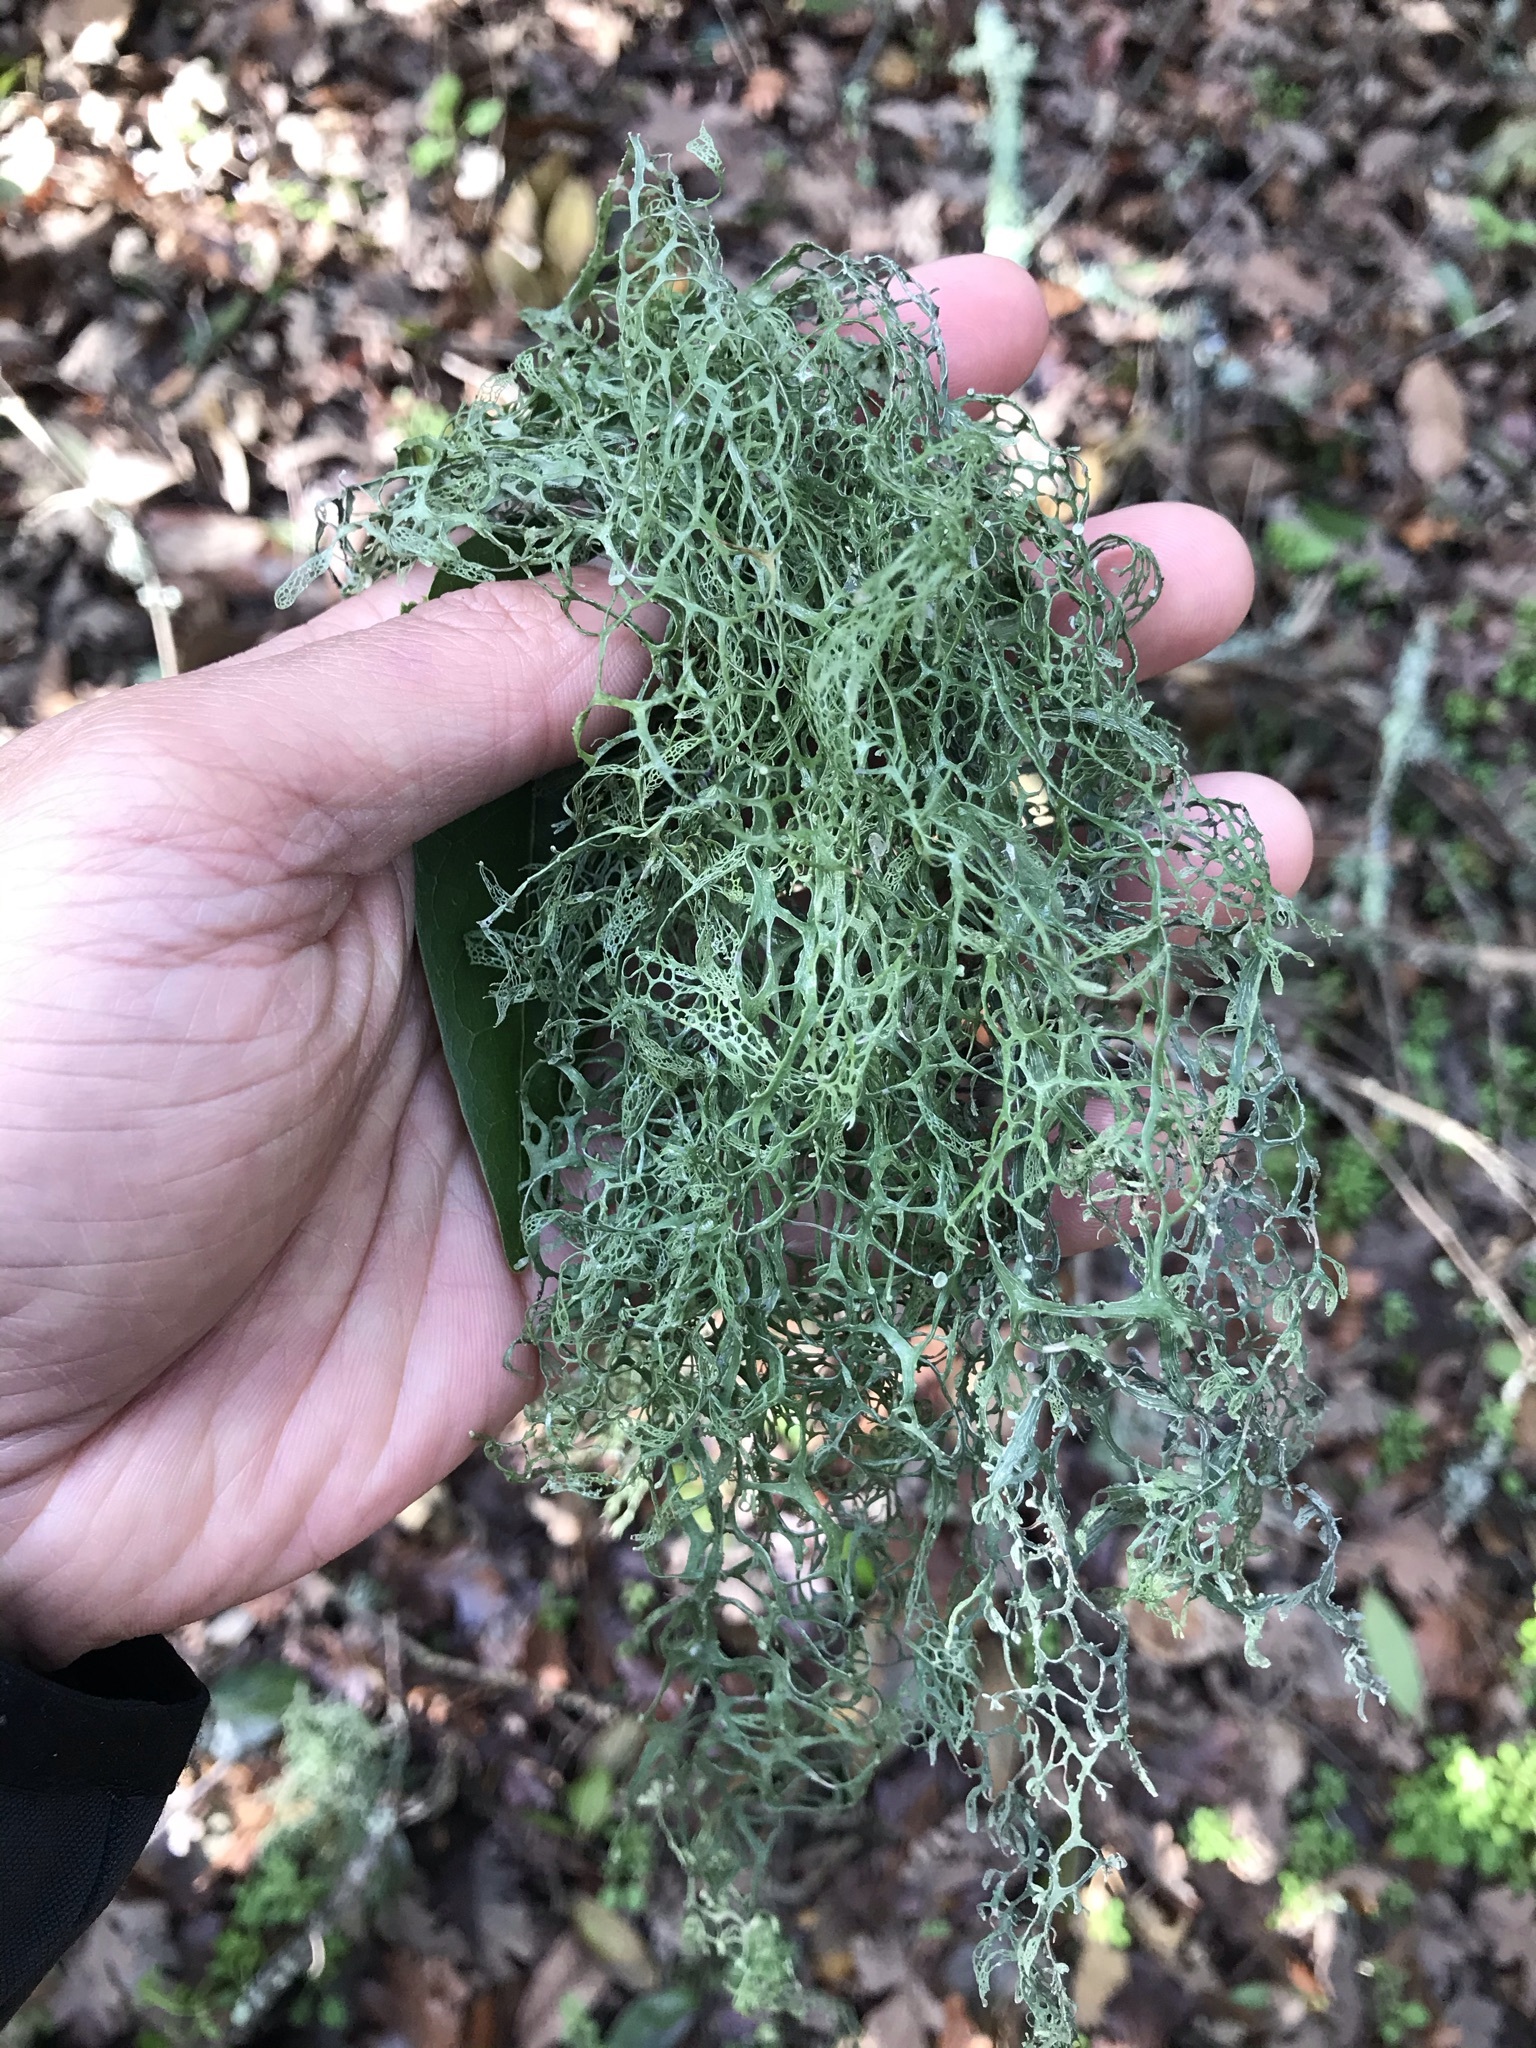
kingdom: Fungi
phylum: Ascomycota
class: Lecanoromycetes
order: Lecanorales
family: Ramalinaceae
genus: Ramalina
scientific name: Ramalina menziesii
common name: Lace lichen
